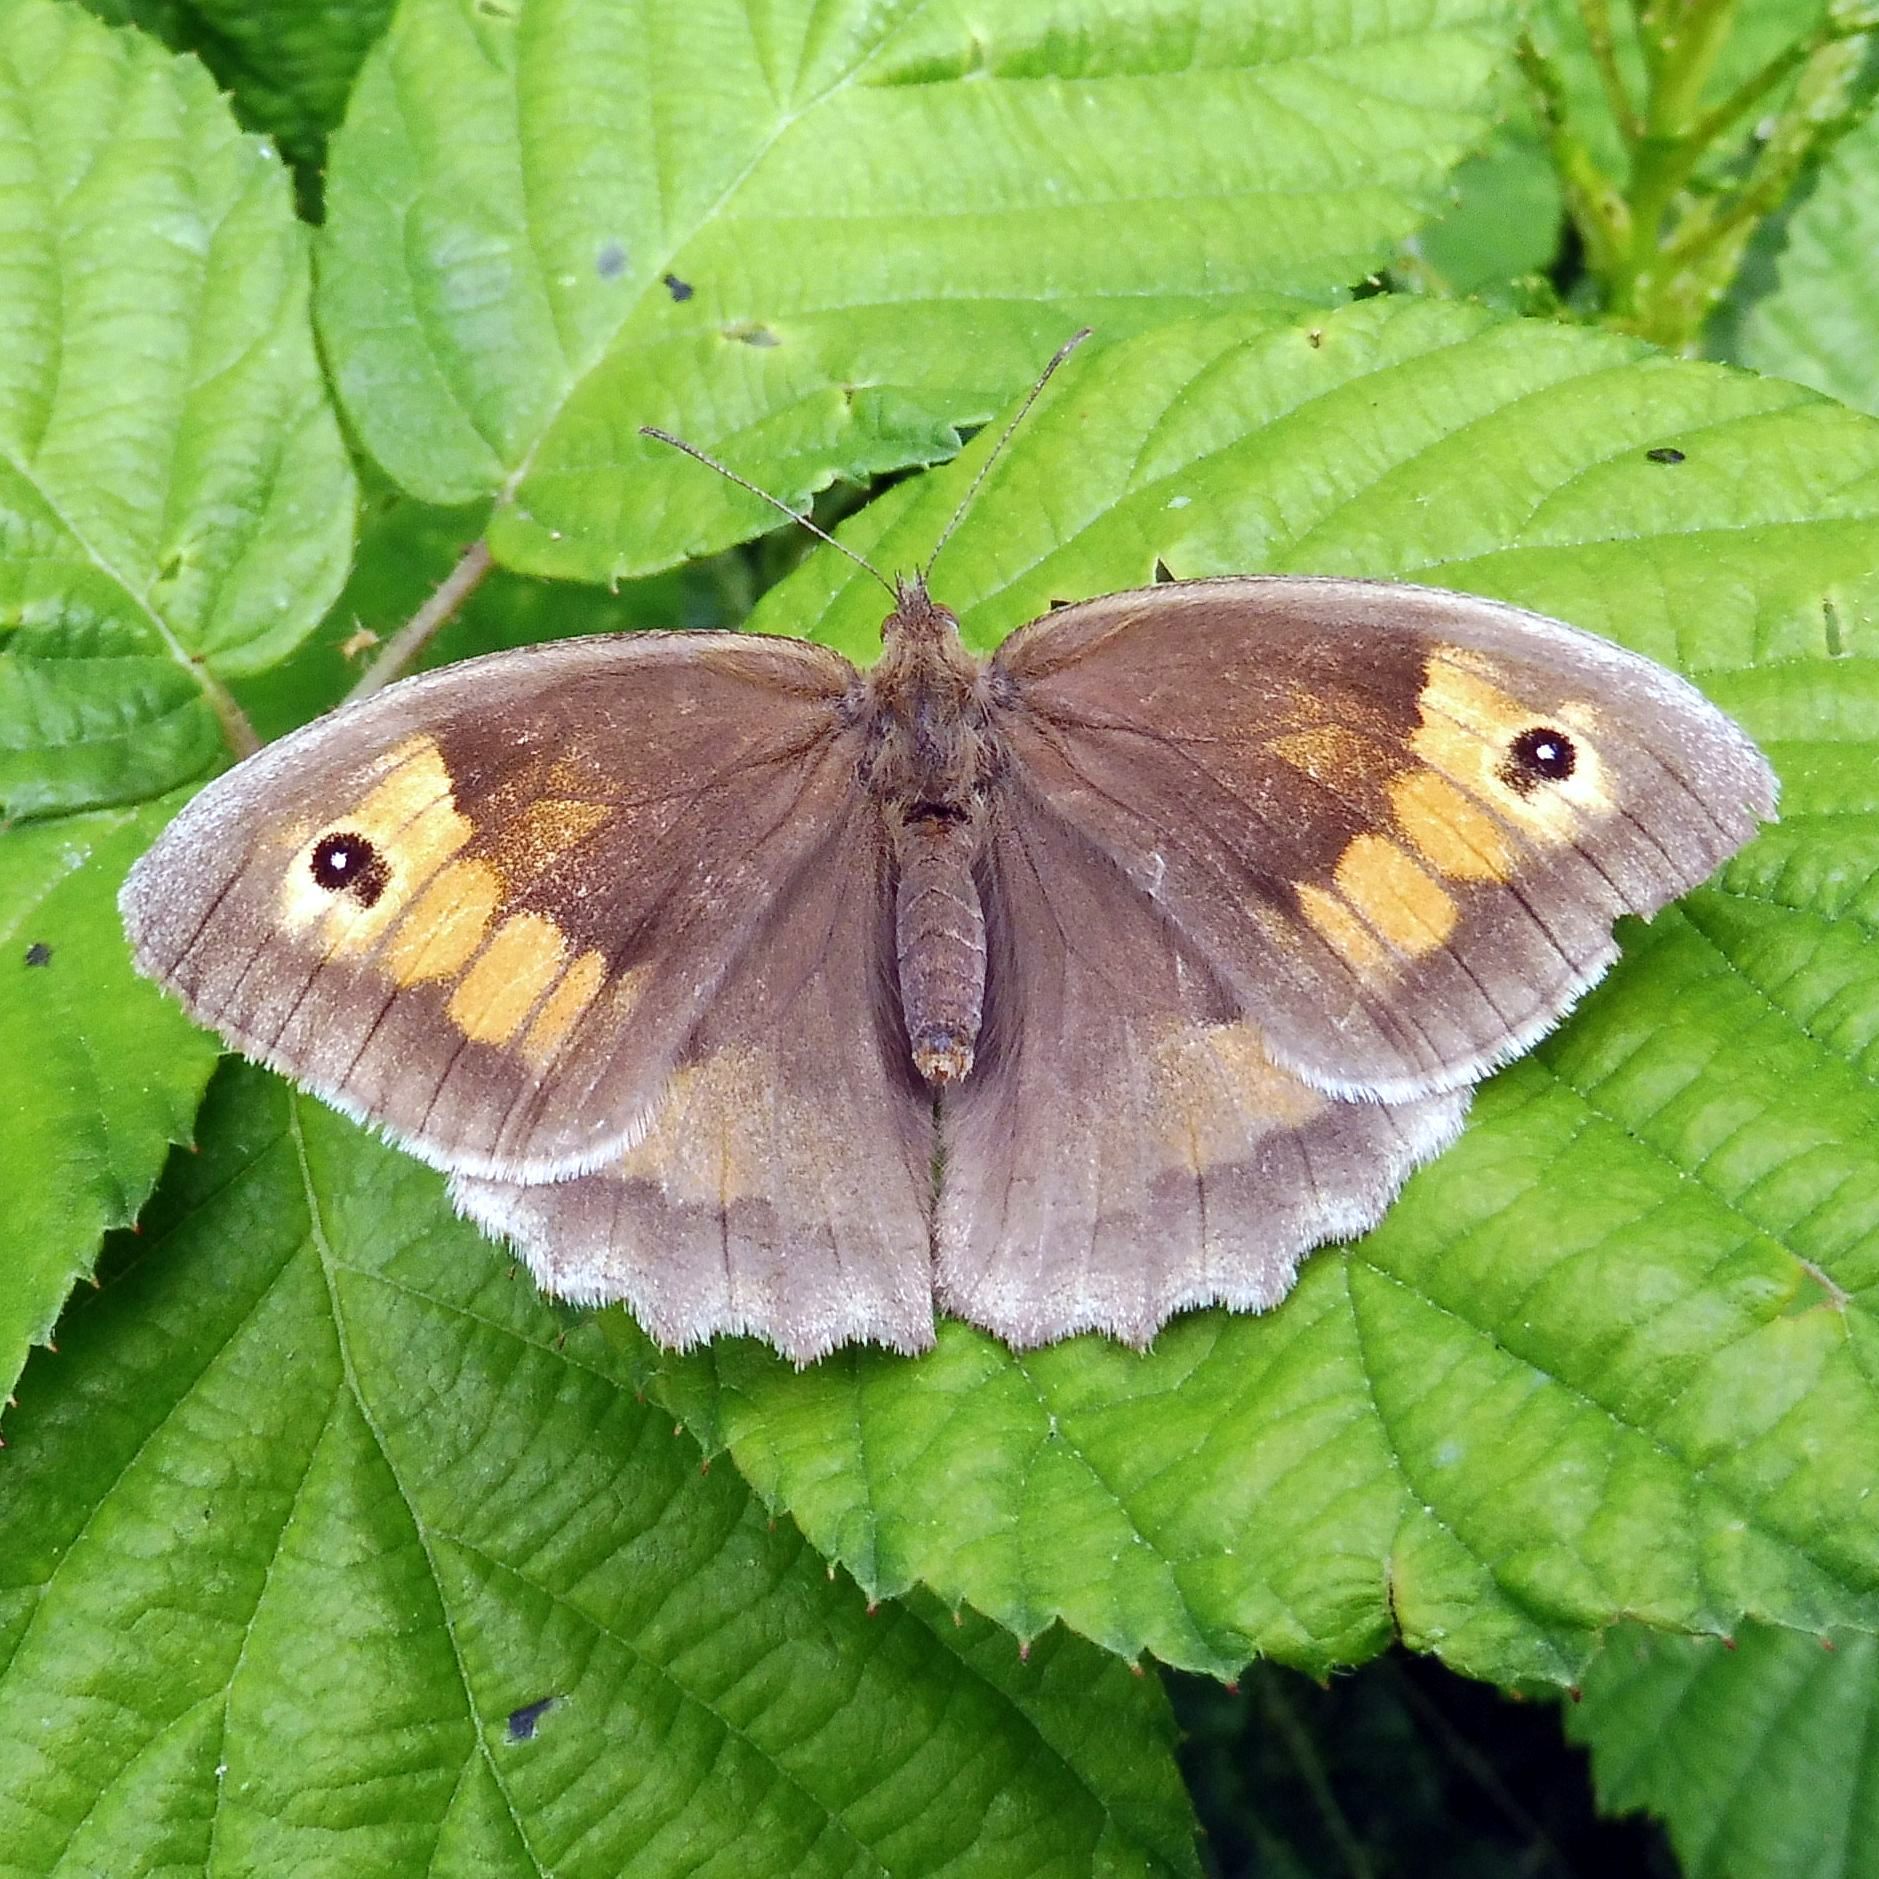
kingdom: Animalia
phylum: Arthropoda
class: Insecta
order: Lepidoptera
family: Nymphalidae
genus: Maniola
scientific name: Maniola jurtina
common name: Meadow brown
